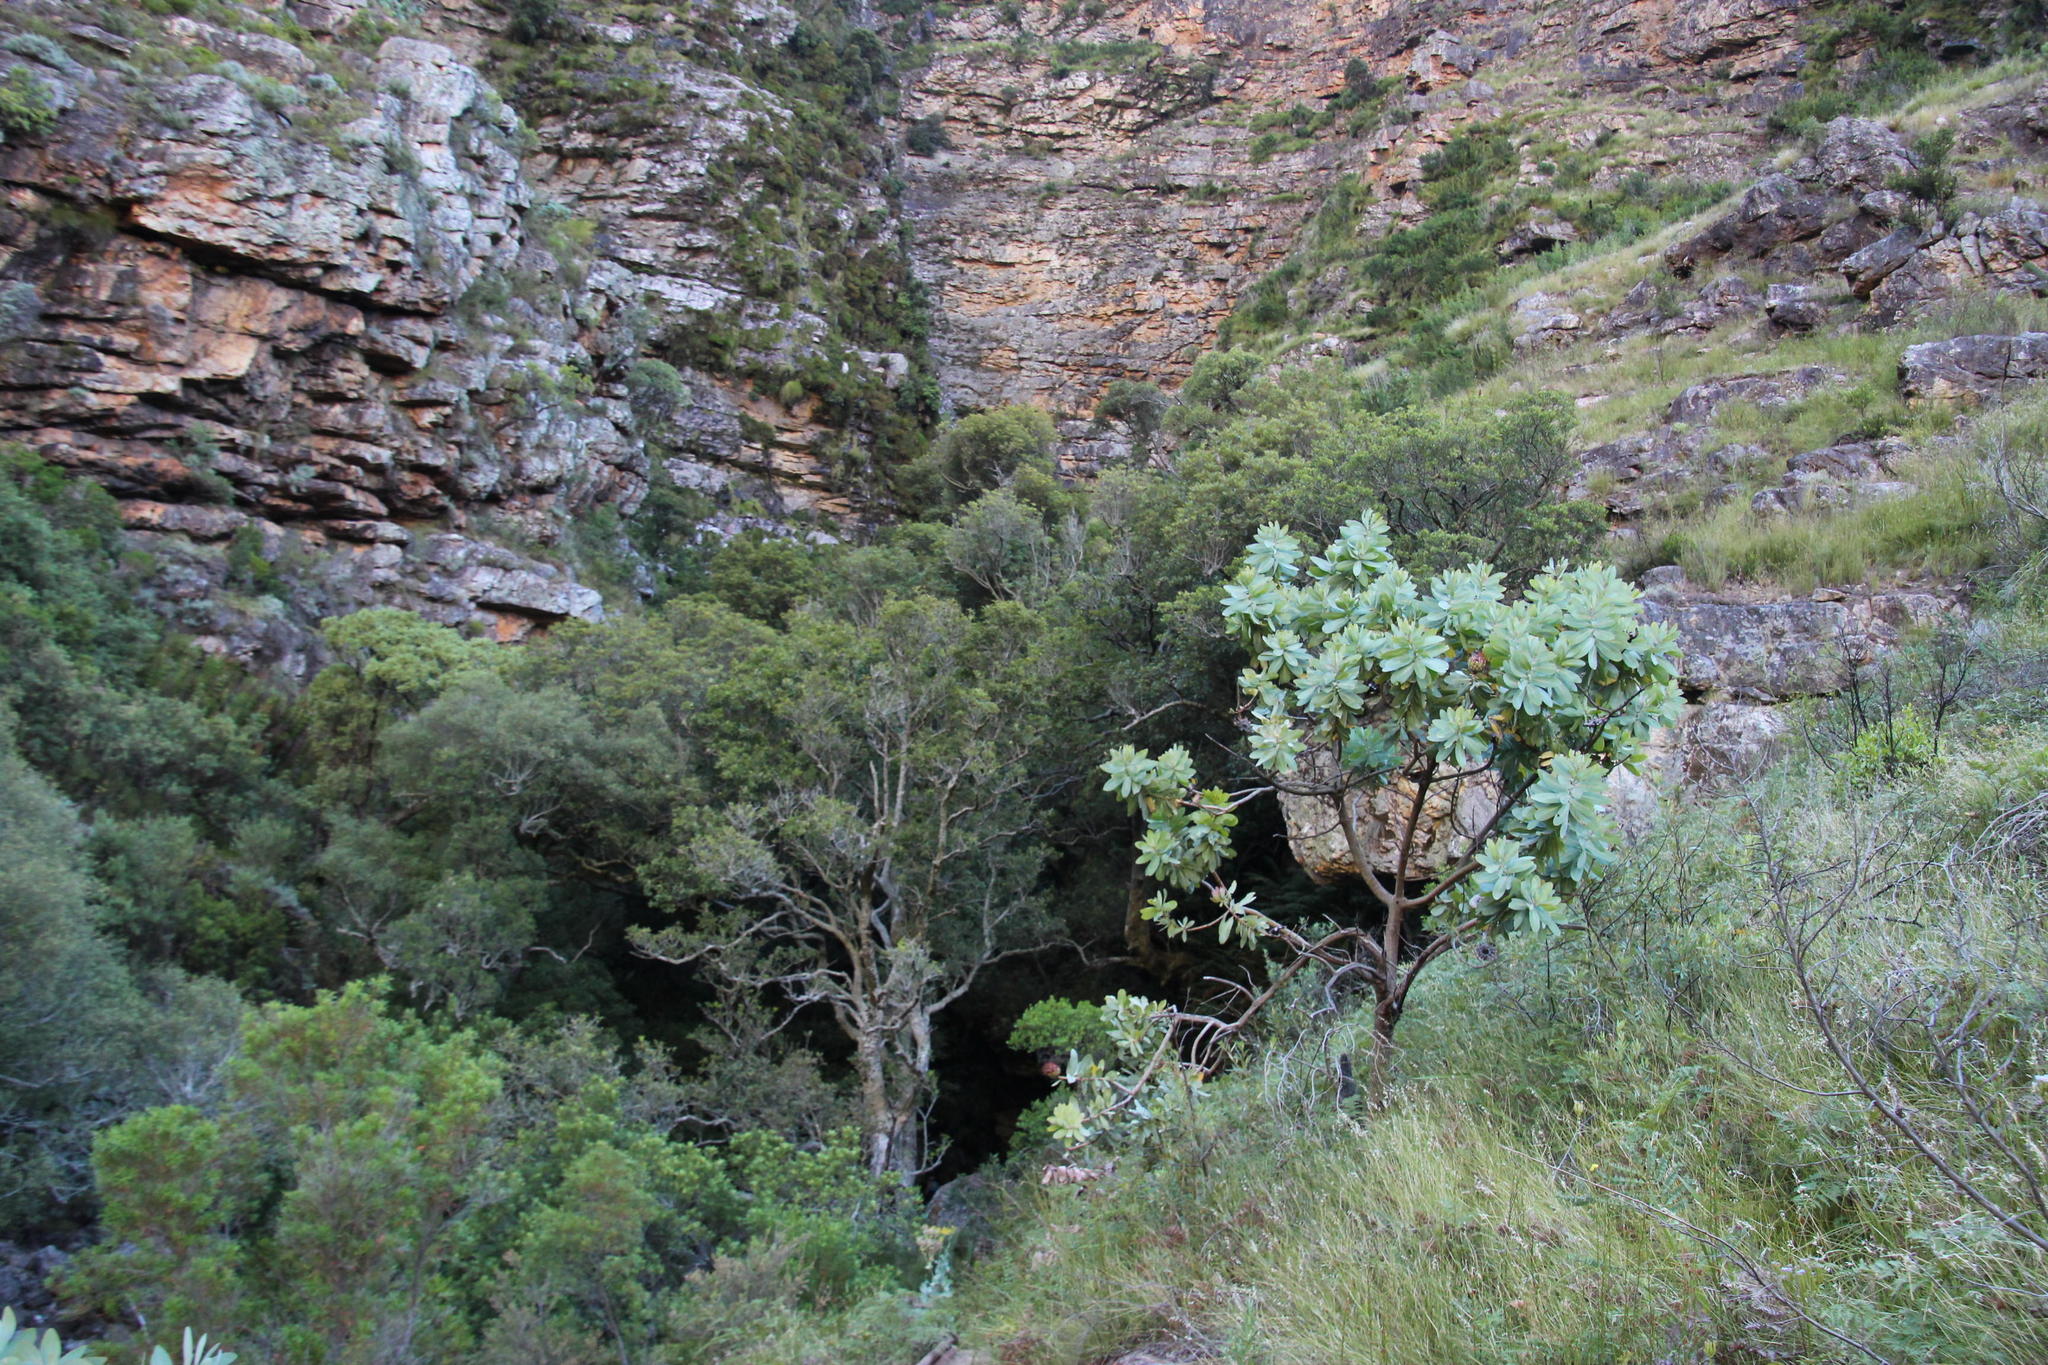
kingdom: Plantae
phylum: Tracheophyta
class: Magnoliopsida
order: Proteales
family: Proteaceae
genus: Protea
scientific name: Protea nitida
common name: Tree protea
